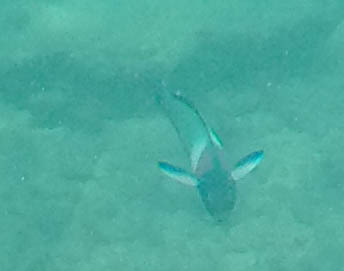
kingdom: Animalia
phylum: Chordata
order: Perciformes
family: Labridae
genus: Thalassoma
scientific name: Thalassoma duperrey
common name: Saddle wrasse
